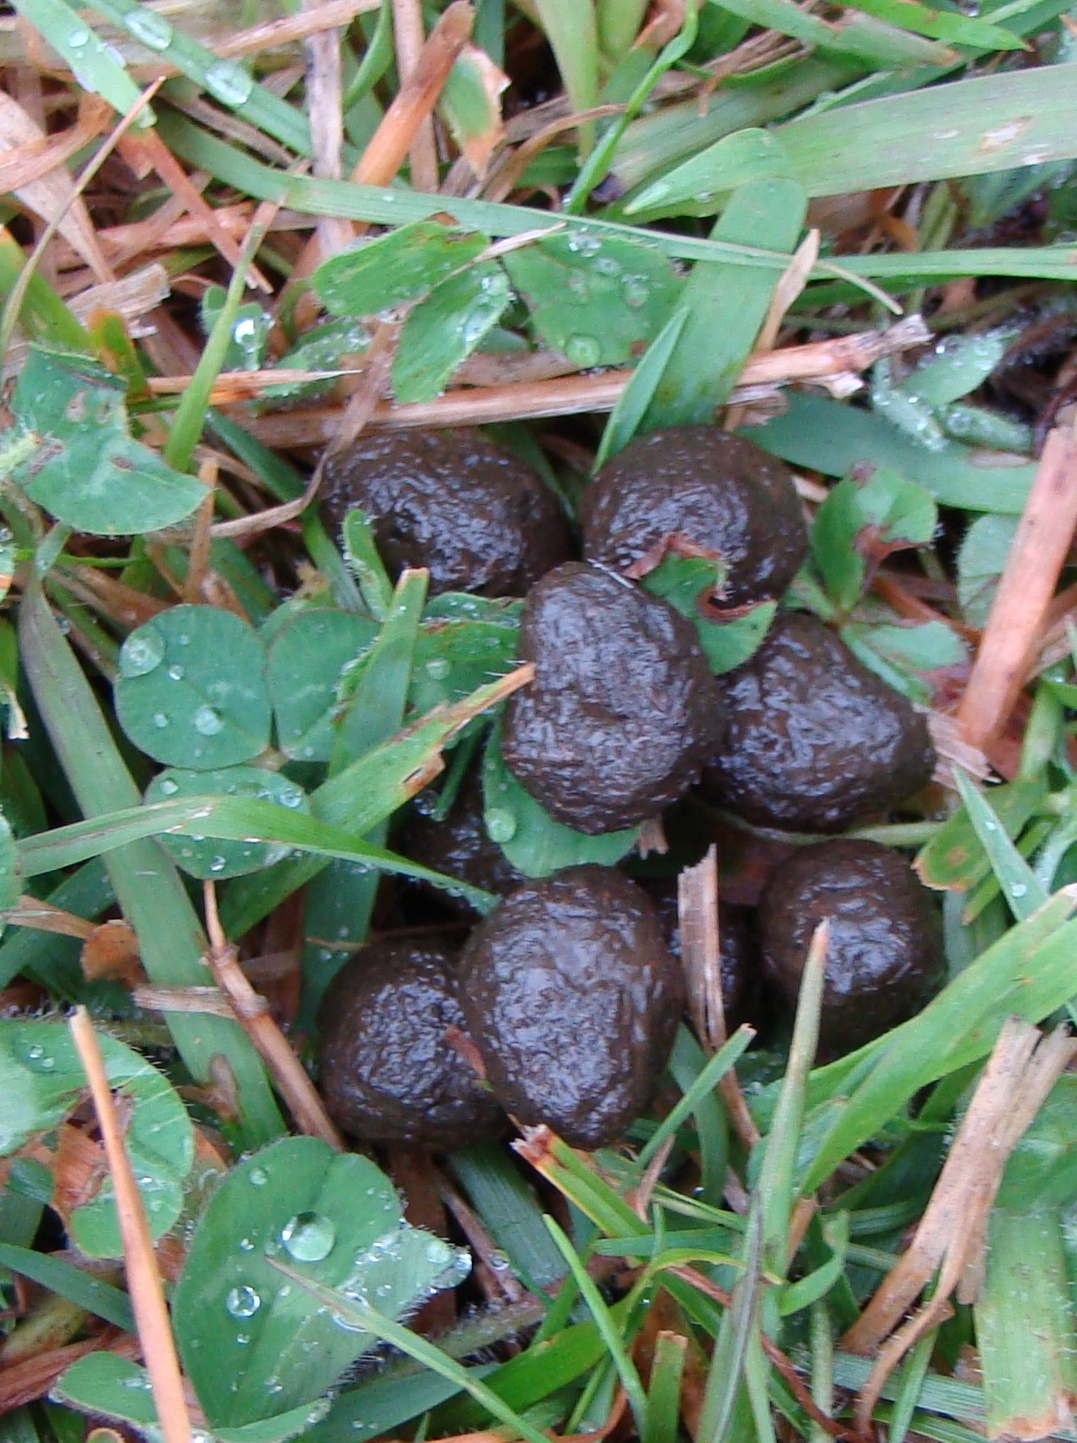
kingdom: Animalia
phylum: Chordata
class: Mammalia
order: Lagomorpha
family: Leporidae
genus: Oryctolagus
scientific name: Oryctolagus cuniculus
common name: European rabbit
